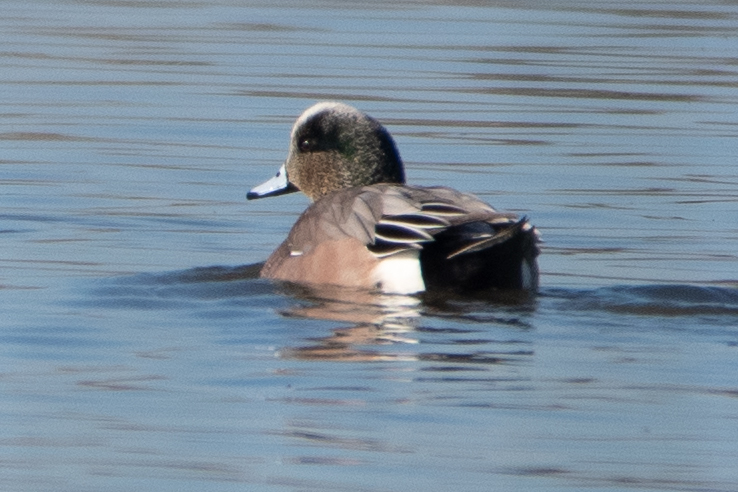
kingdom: Animalia
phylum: Chordata
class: Aves
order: Anseriformes
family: Anatidae
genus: Mareca
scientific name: Mareca americana
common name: American wigeon
